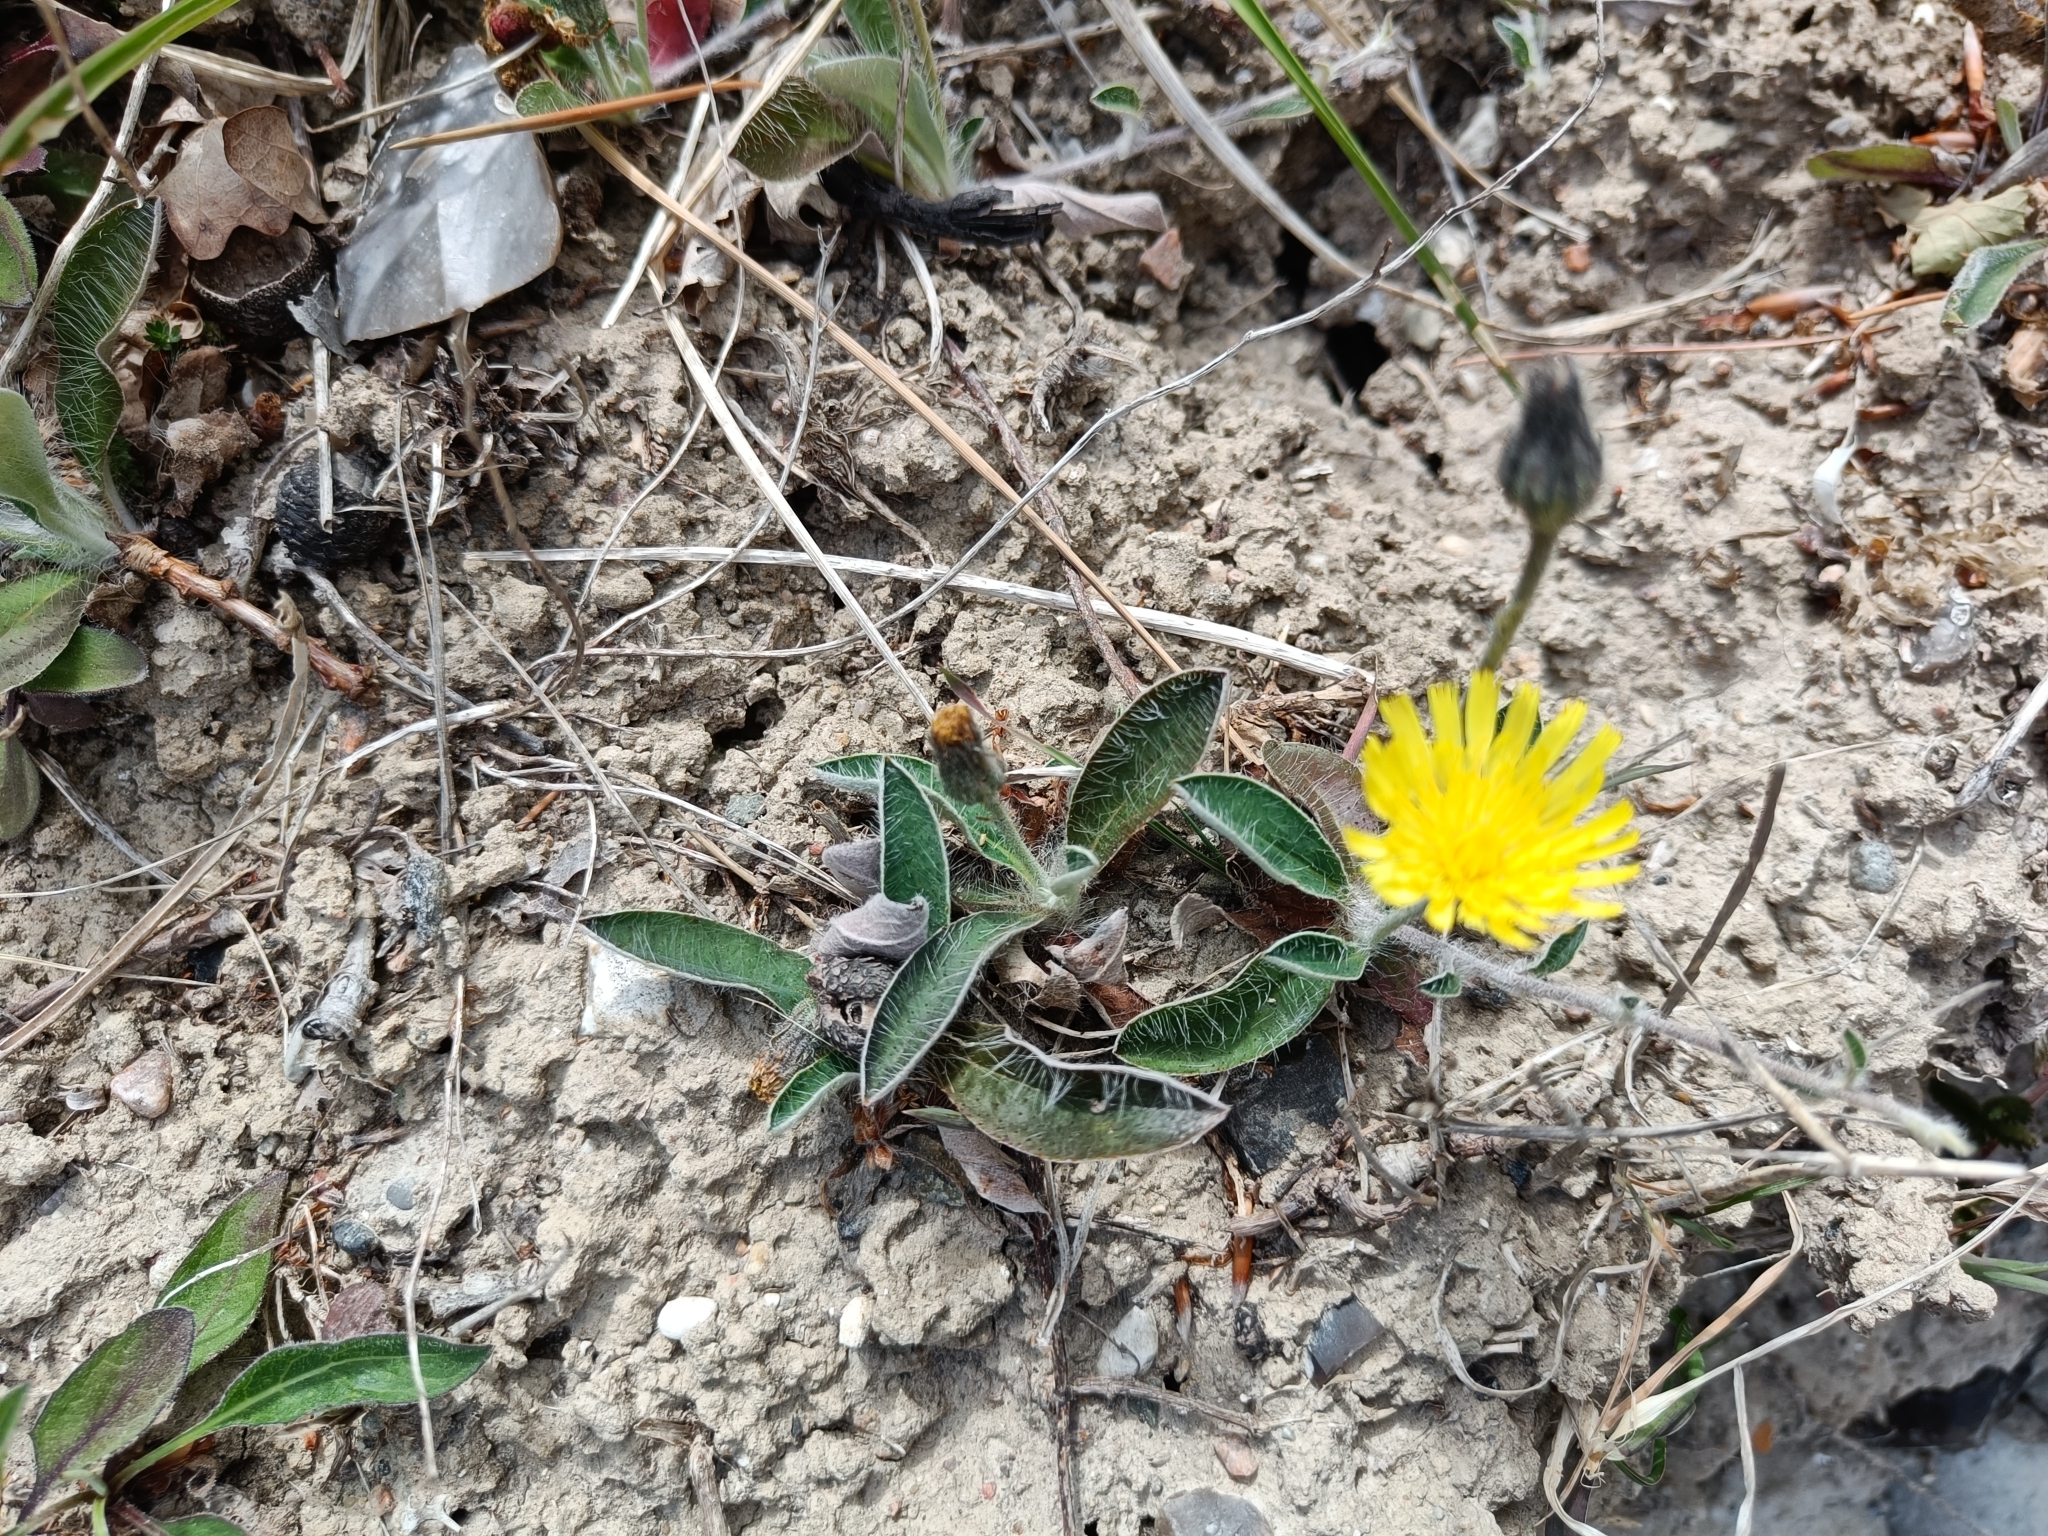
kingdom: Plantae
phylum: Tracheophyta
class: Magnoliopsida
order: Asterales
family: Asteraceae
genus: Pilosella
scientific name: Pilosella officinarum
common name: Mouse-ear hawkweed
